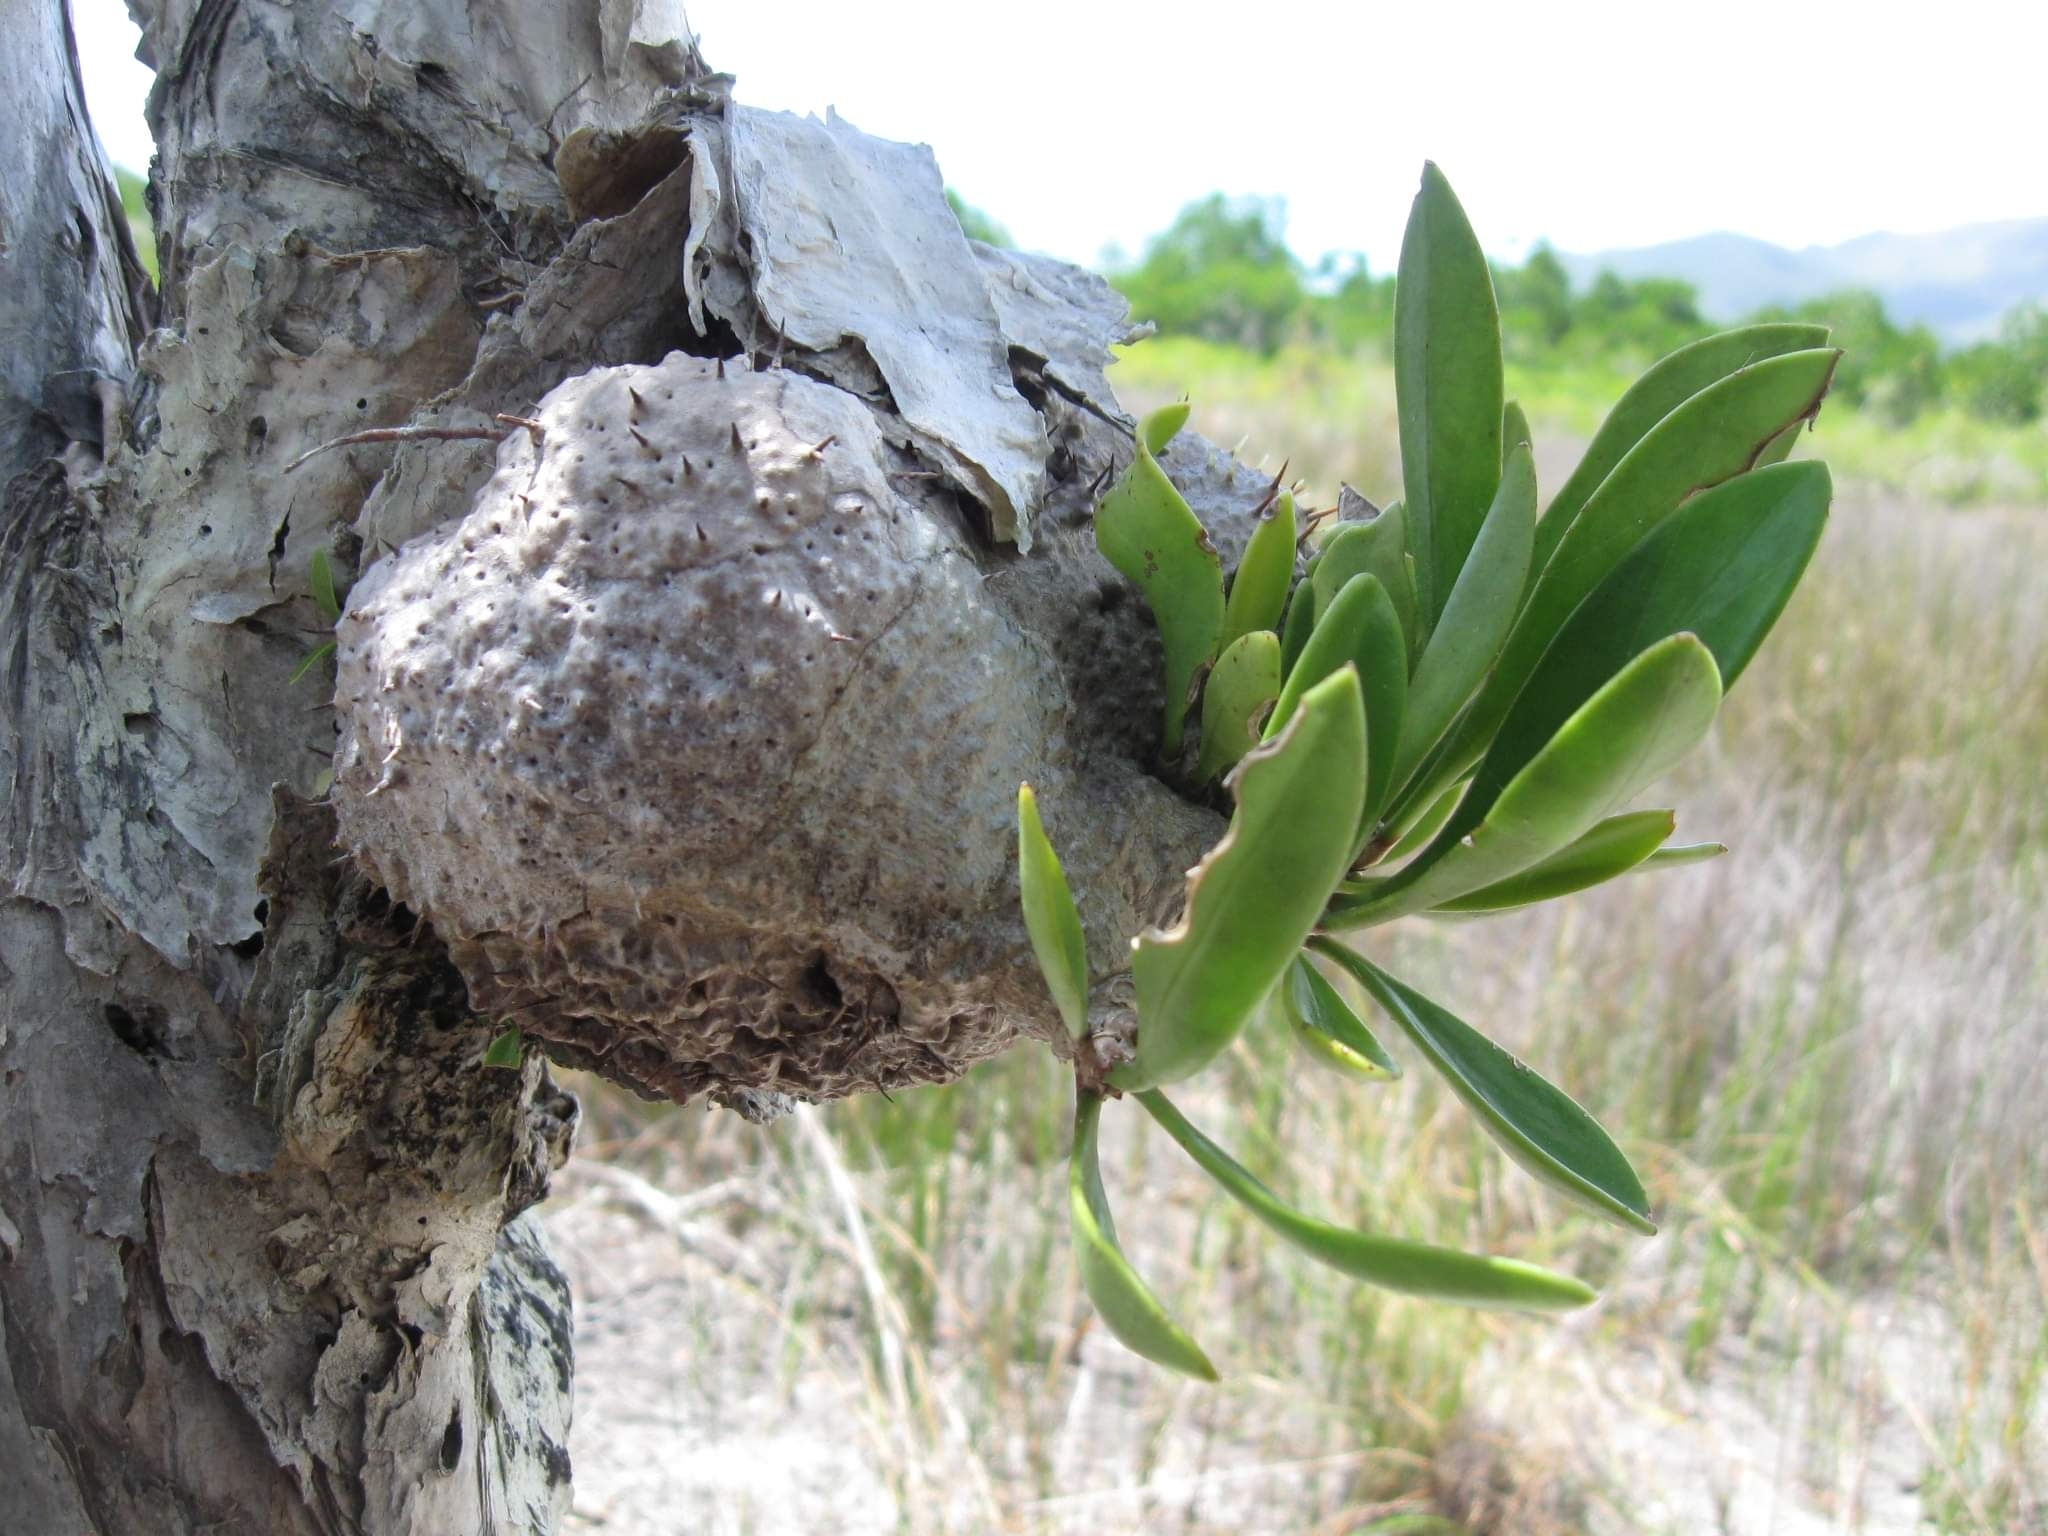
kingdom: Plantae
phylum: Tracheophyta
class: Magnoliopsida
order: Gentianales
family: Rubiaceae
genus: Myrmecodia
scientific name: Myrmecodia beccarii
